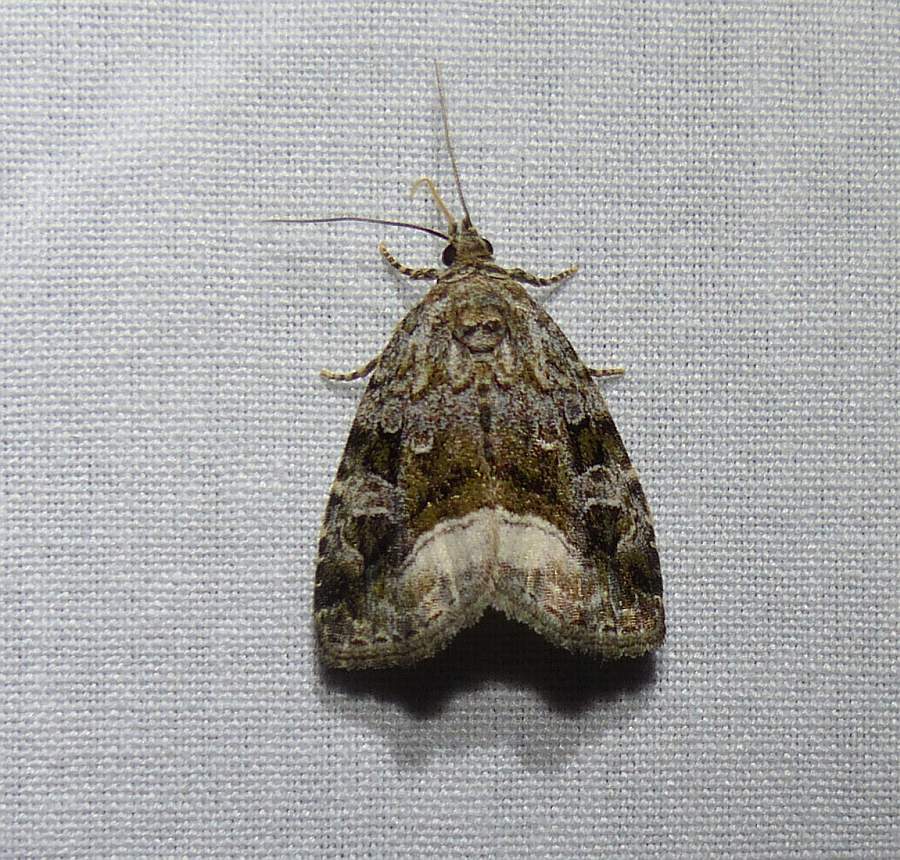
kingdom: Animalia
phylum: Arthropoda
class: Insecta
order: Lepidoptera
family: Noctuidae
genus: Protodeltote
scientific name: Protodeltote muscosula
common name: Large mossy glyph
